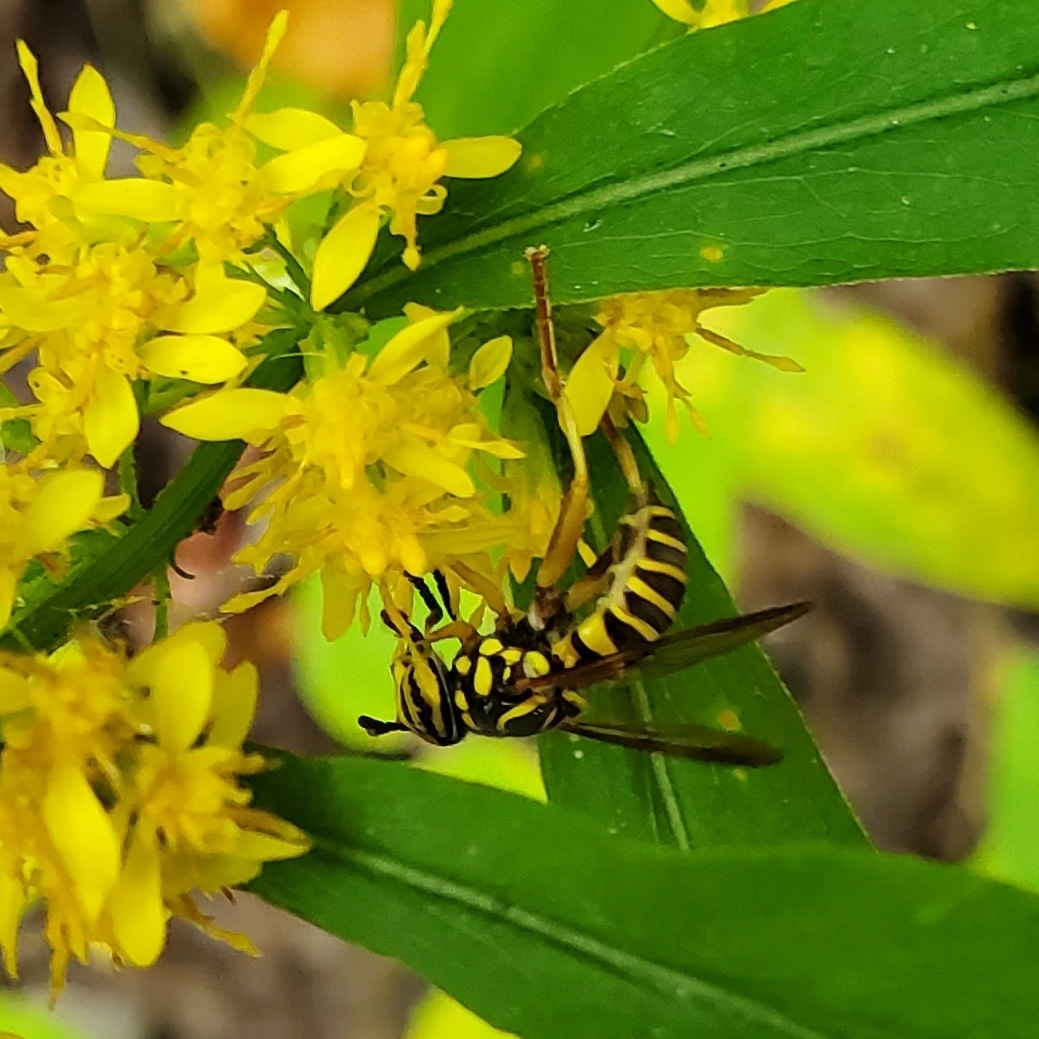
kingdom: Animalia
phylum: Arthropoda
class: Insecta
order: Diptera
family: Syrphidae
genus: Spilomyia
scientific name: Spilomyia longicornis
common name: Eastern hornet fly
